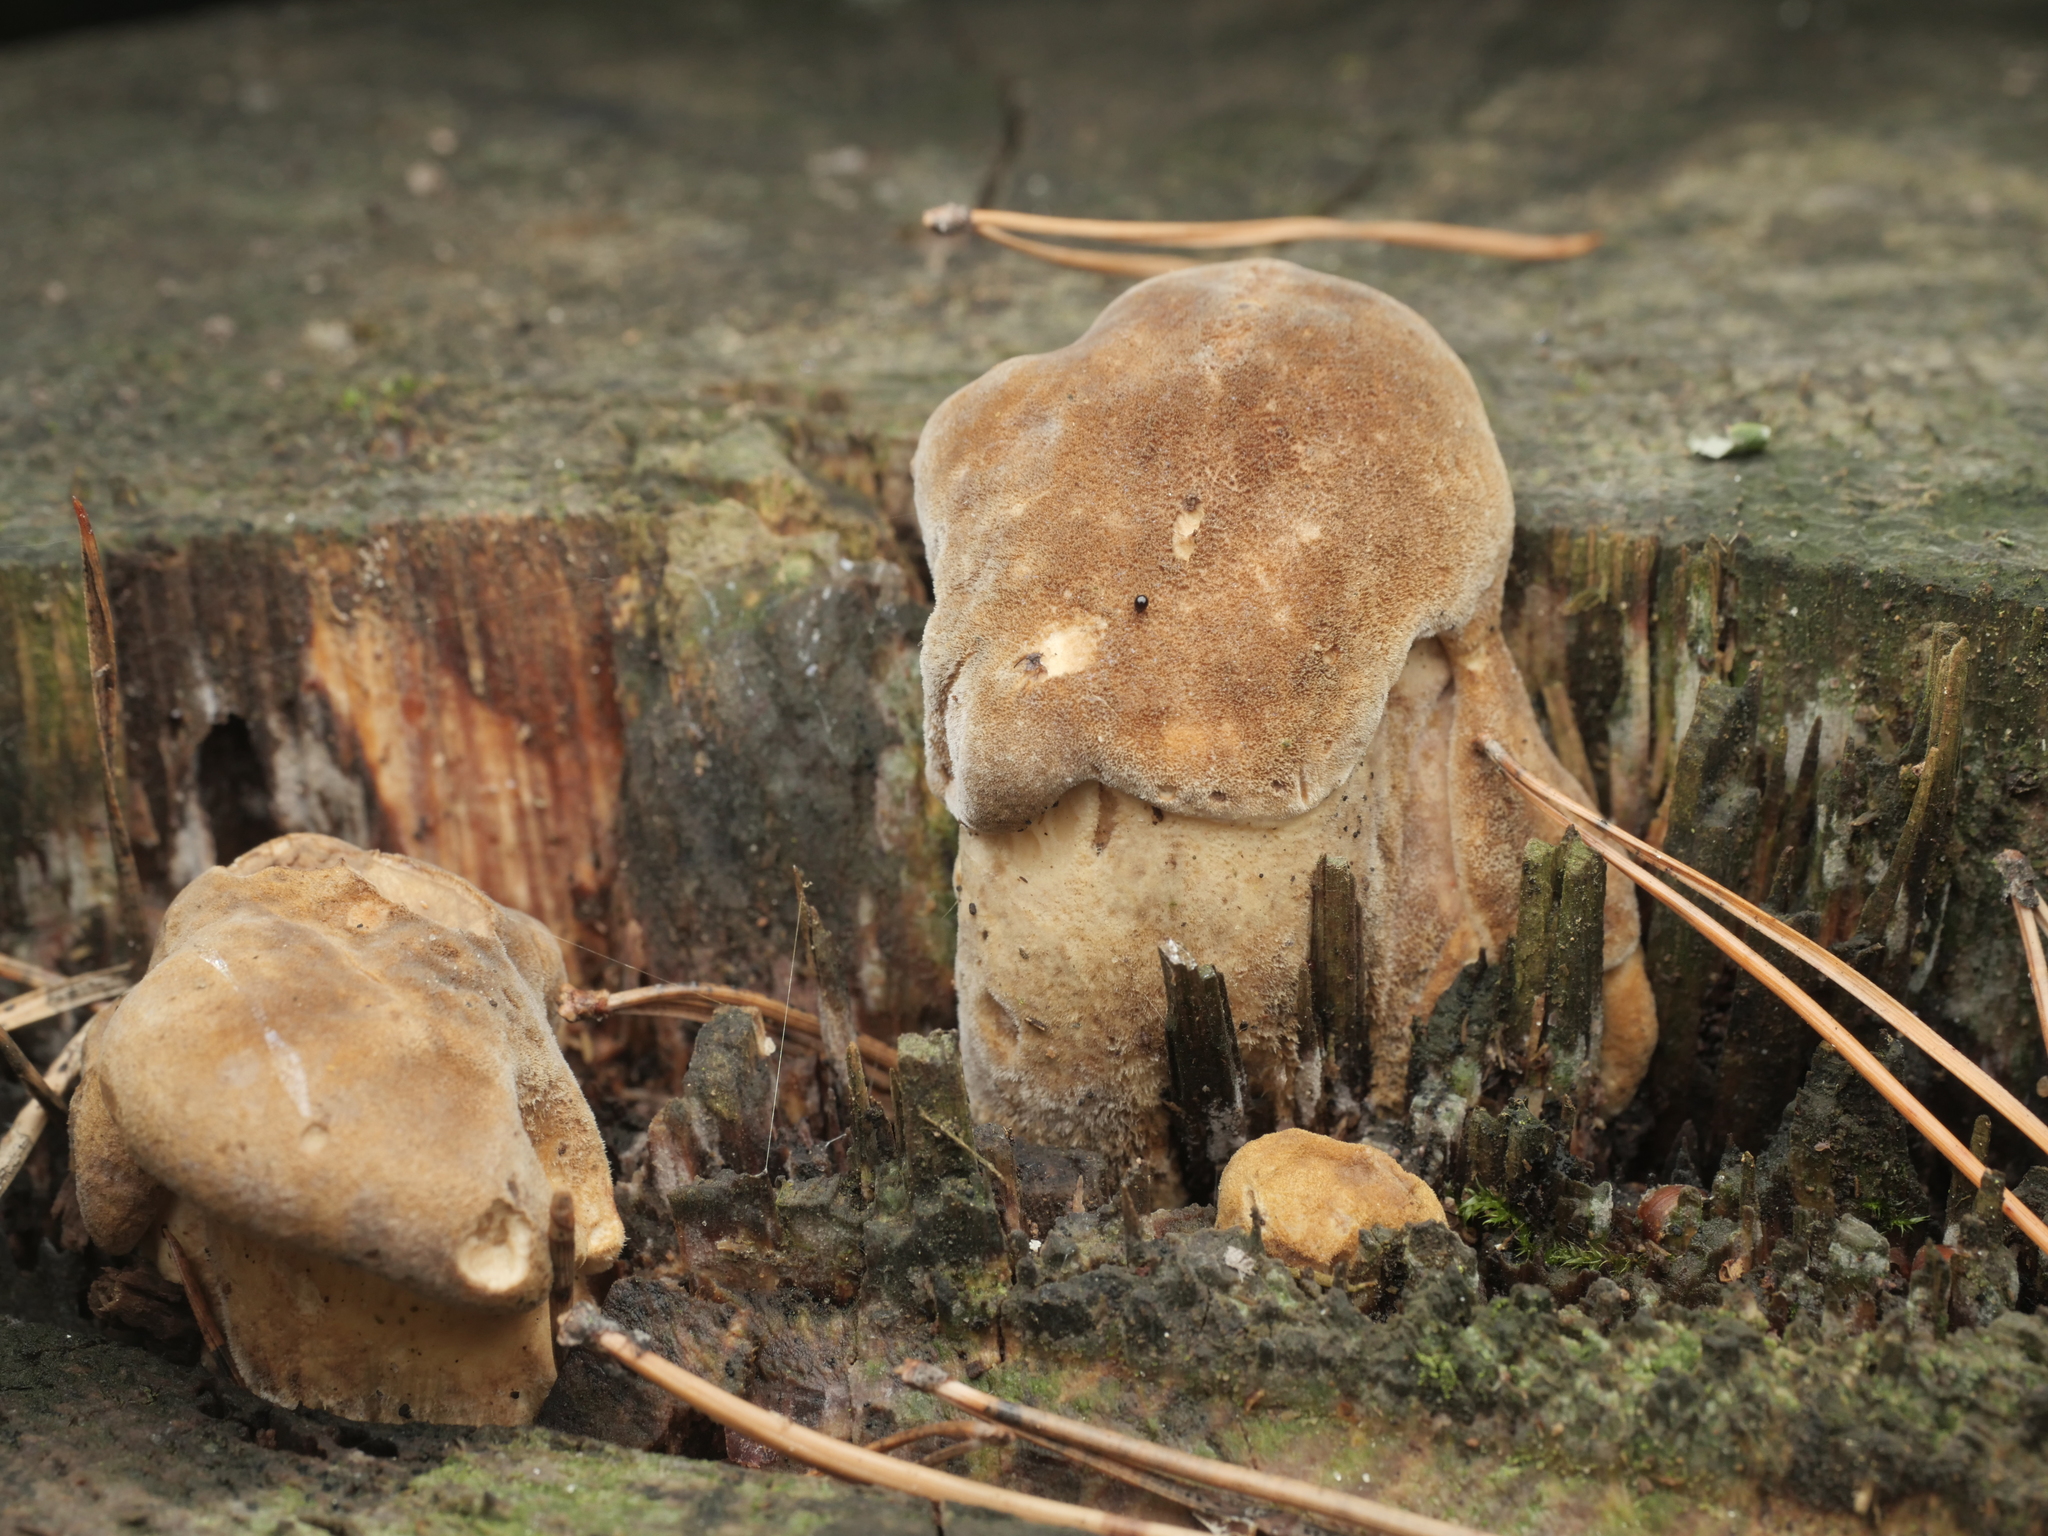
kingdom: Fungi
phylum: Basidiomycota
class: Agaricomycetes
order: Boletales
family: Tapinellaceae
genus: Tapinella
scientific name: Tapinella atrotomentosa
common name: Velvet rollrim
